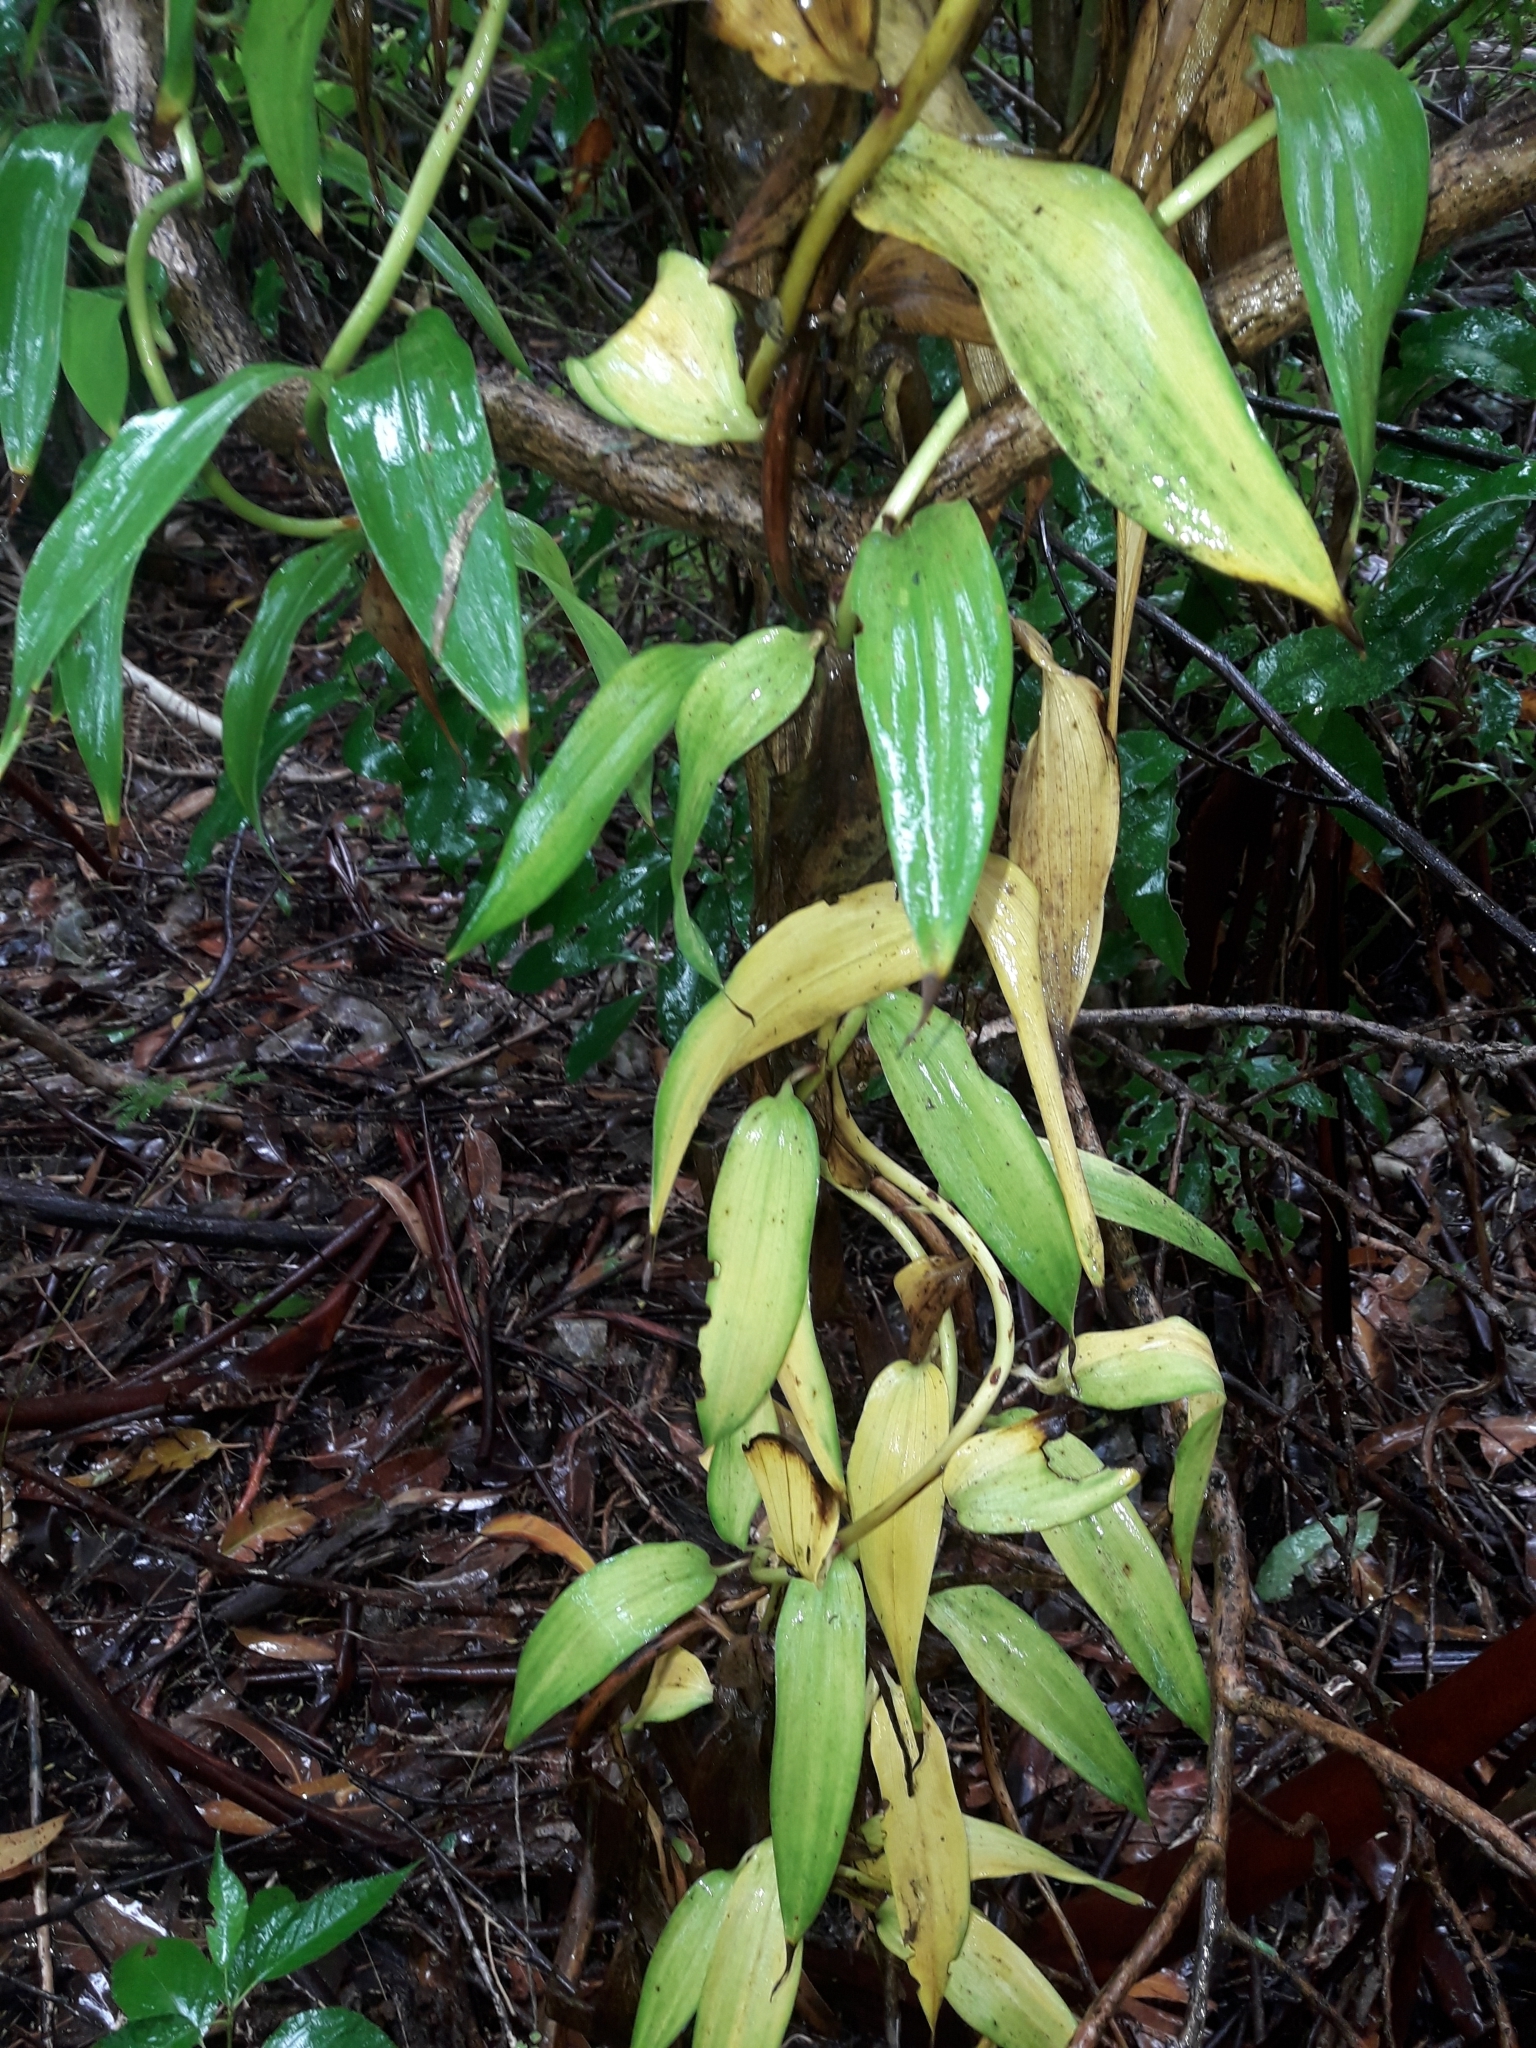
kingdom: Plantae
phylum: Tracheophyta
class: Liliopsida
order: Liliales
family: Alstroemeriaceae
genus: Bomarea
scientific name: Bomarea multiflora
